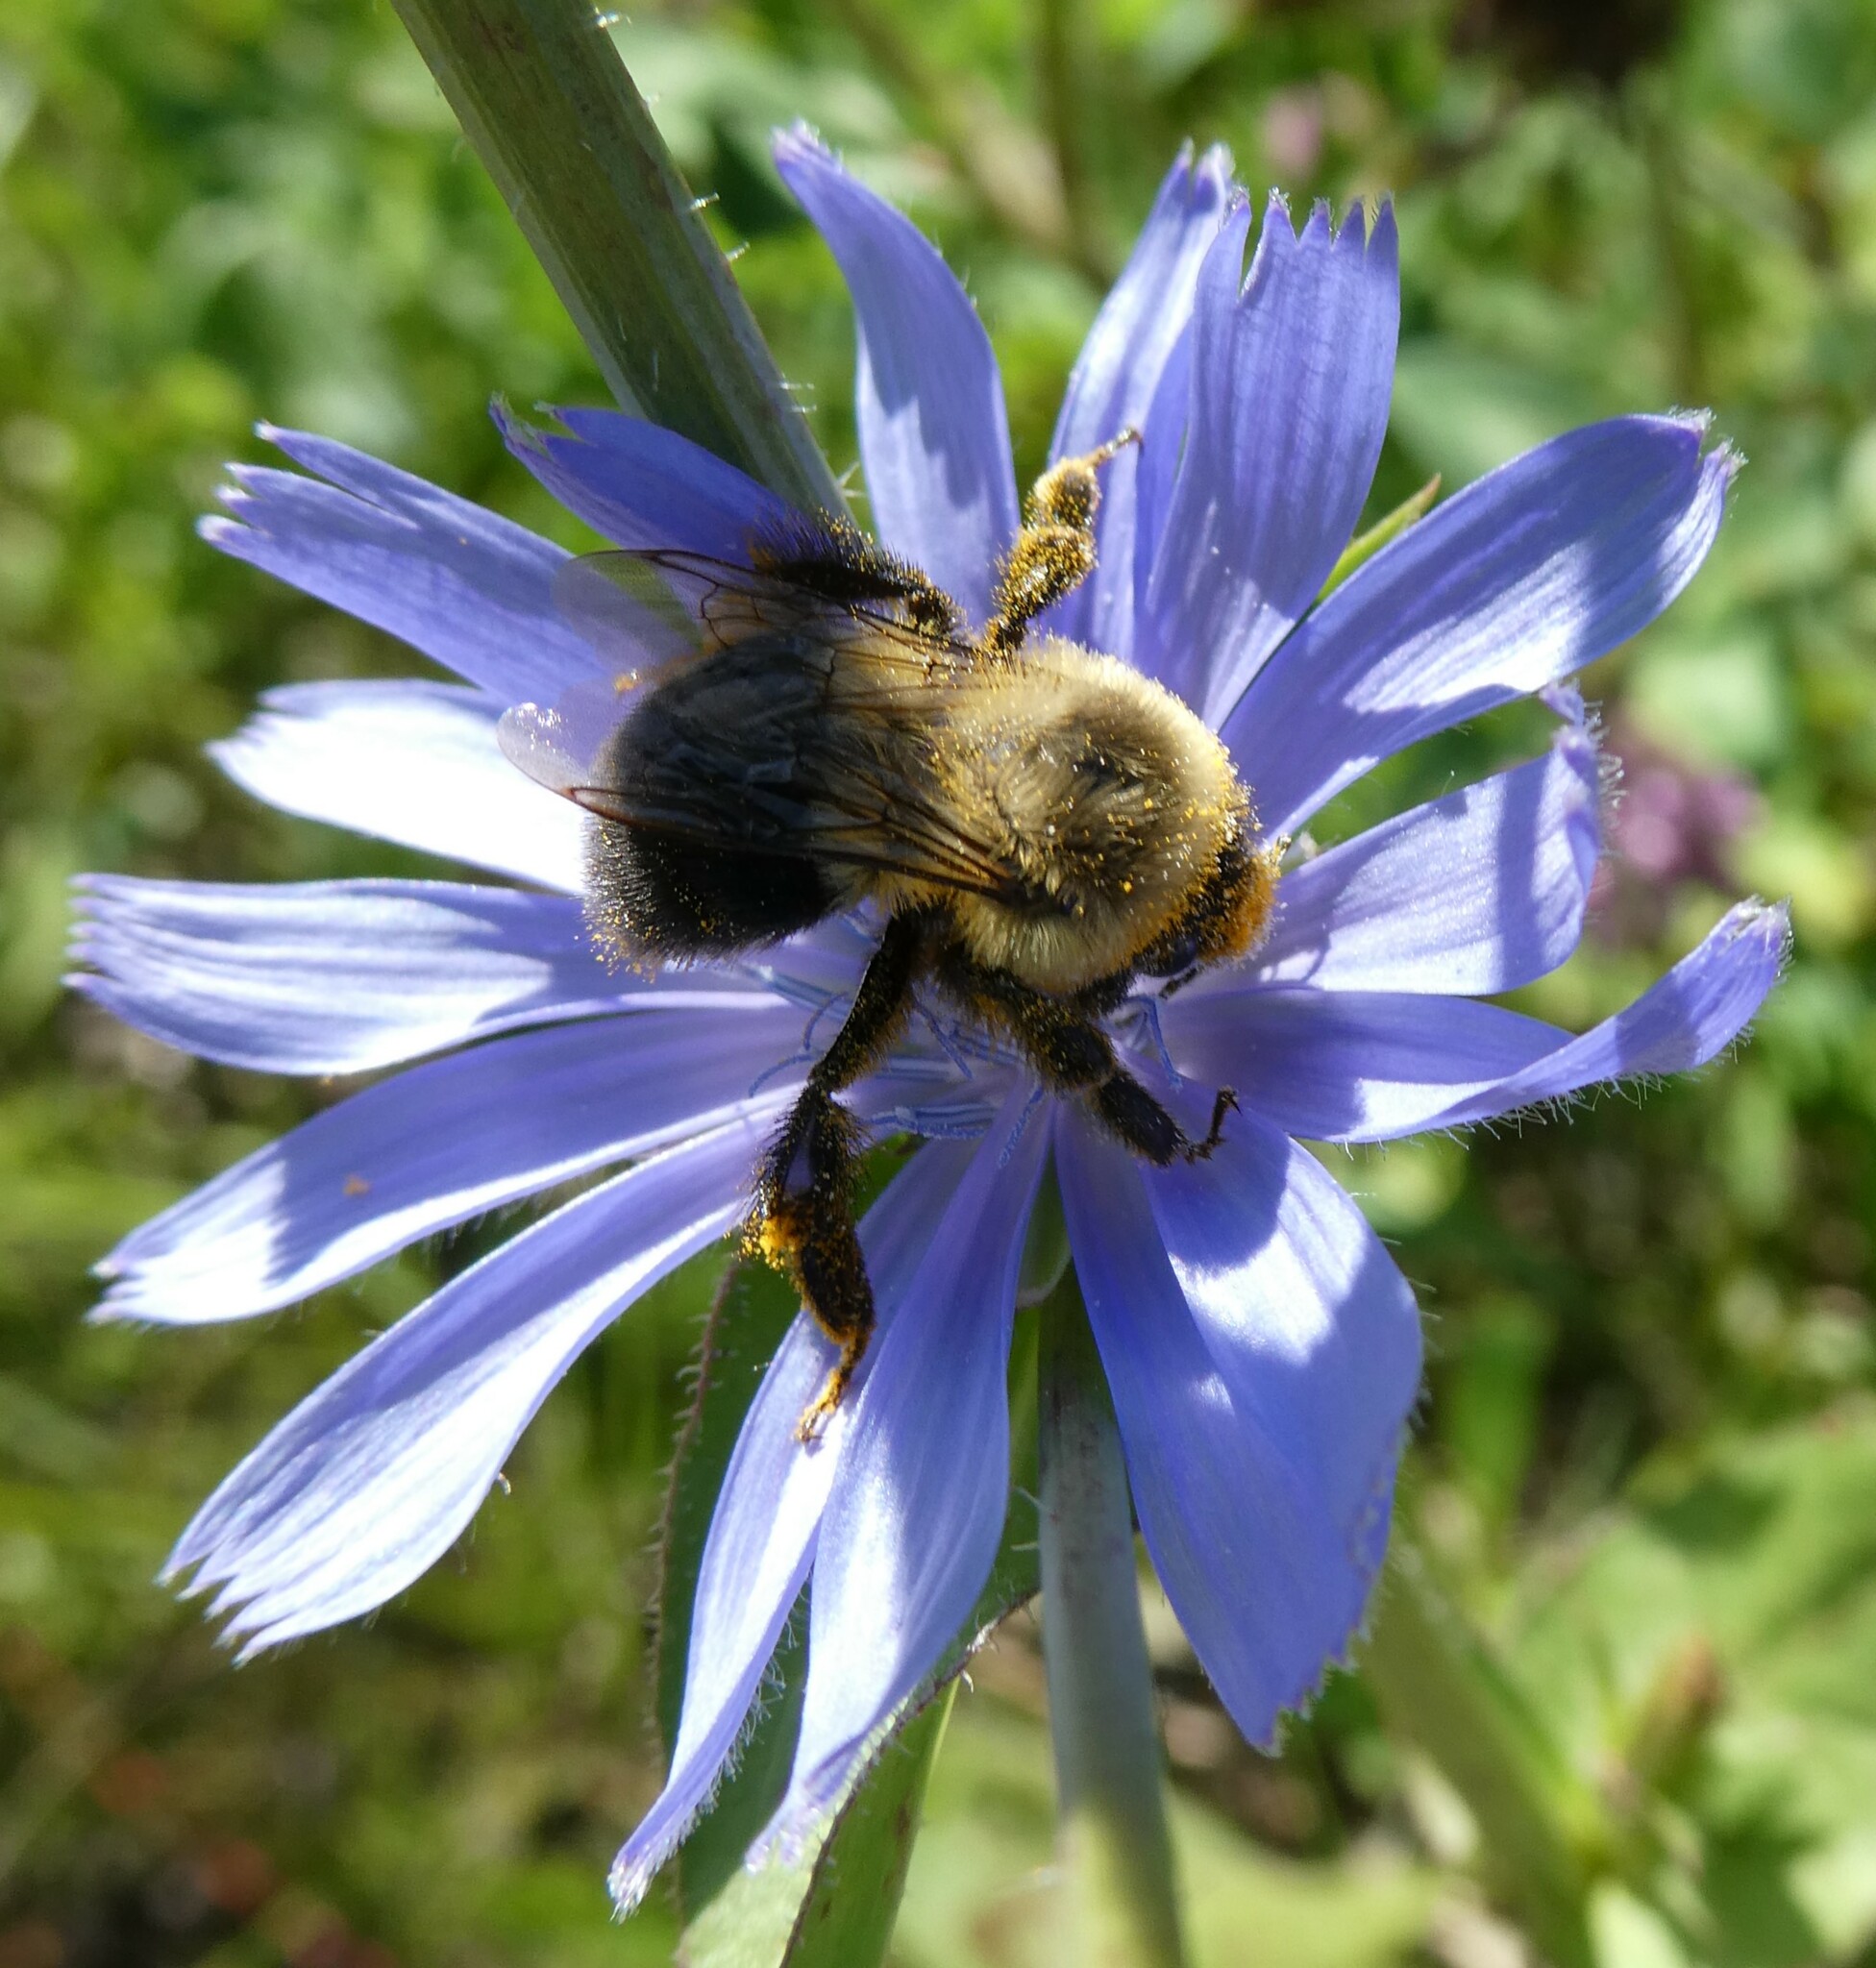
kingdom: Animalia
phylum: Arthropoda
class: Insecta
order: Hymenoptera
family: Apidae
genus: Bombus
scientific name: Bombus impatiens
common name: Common eastern bumble bee
